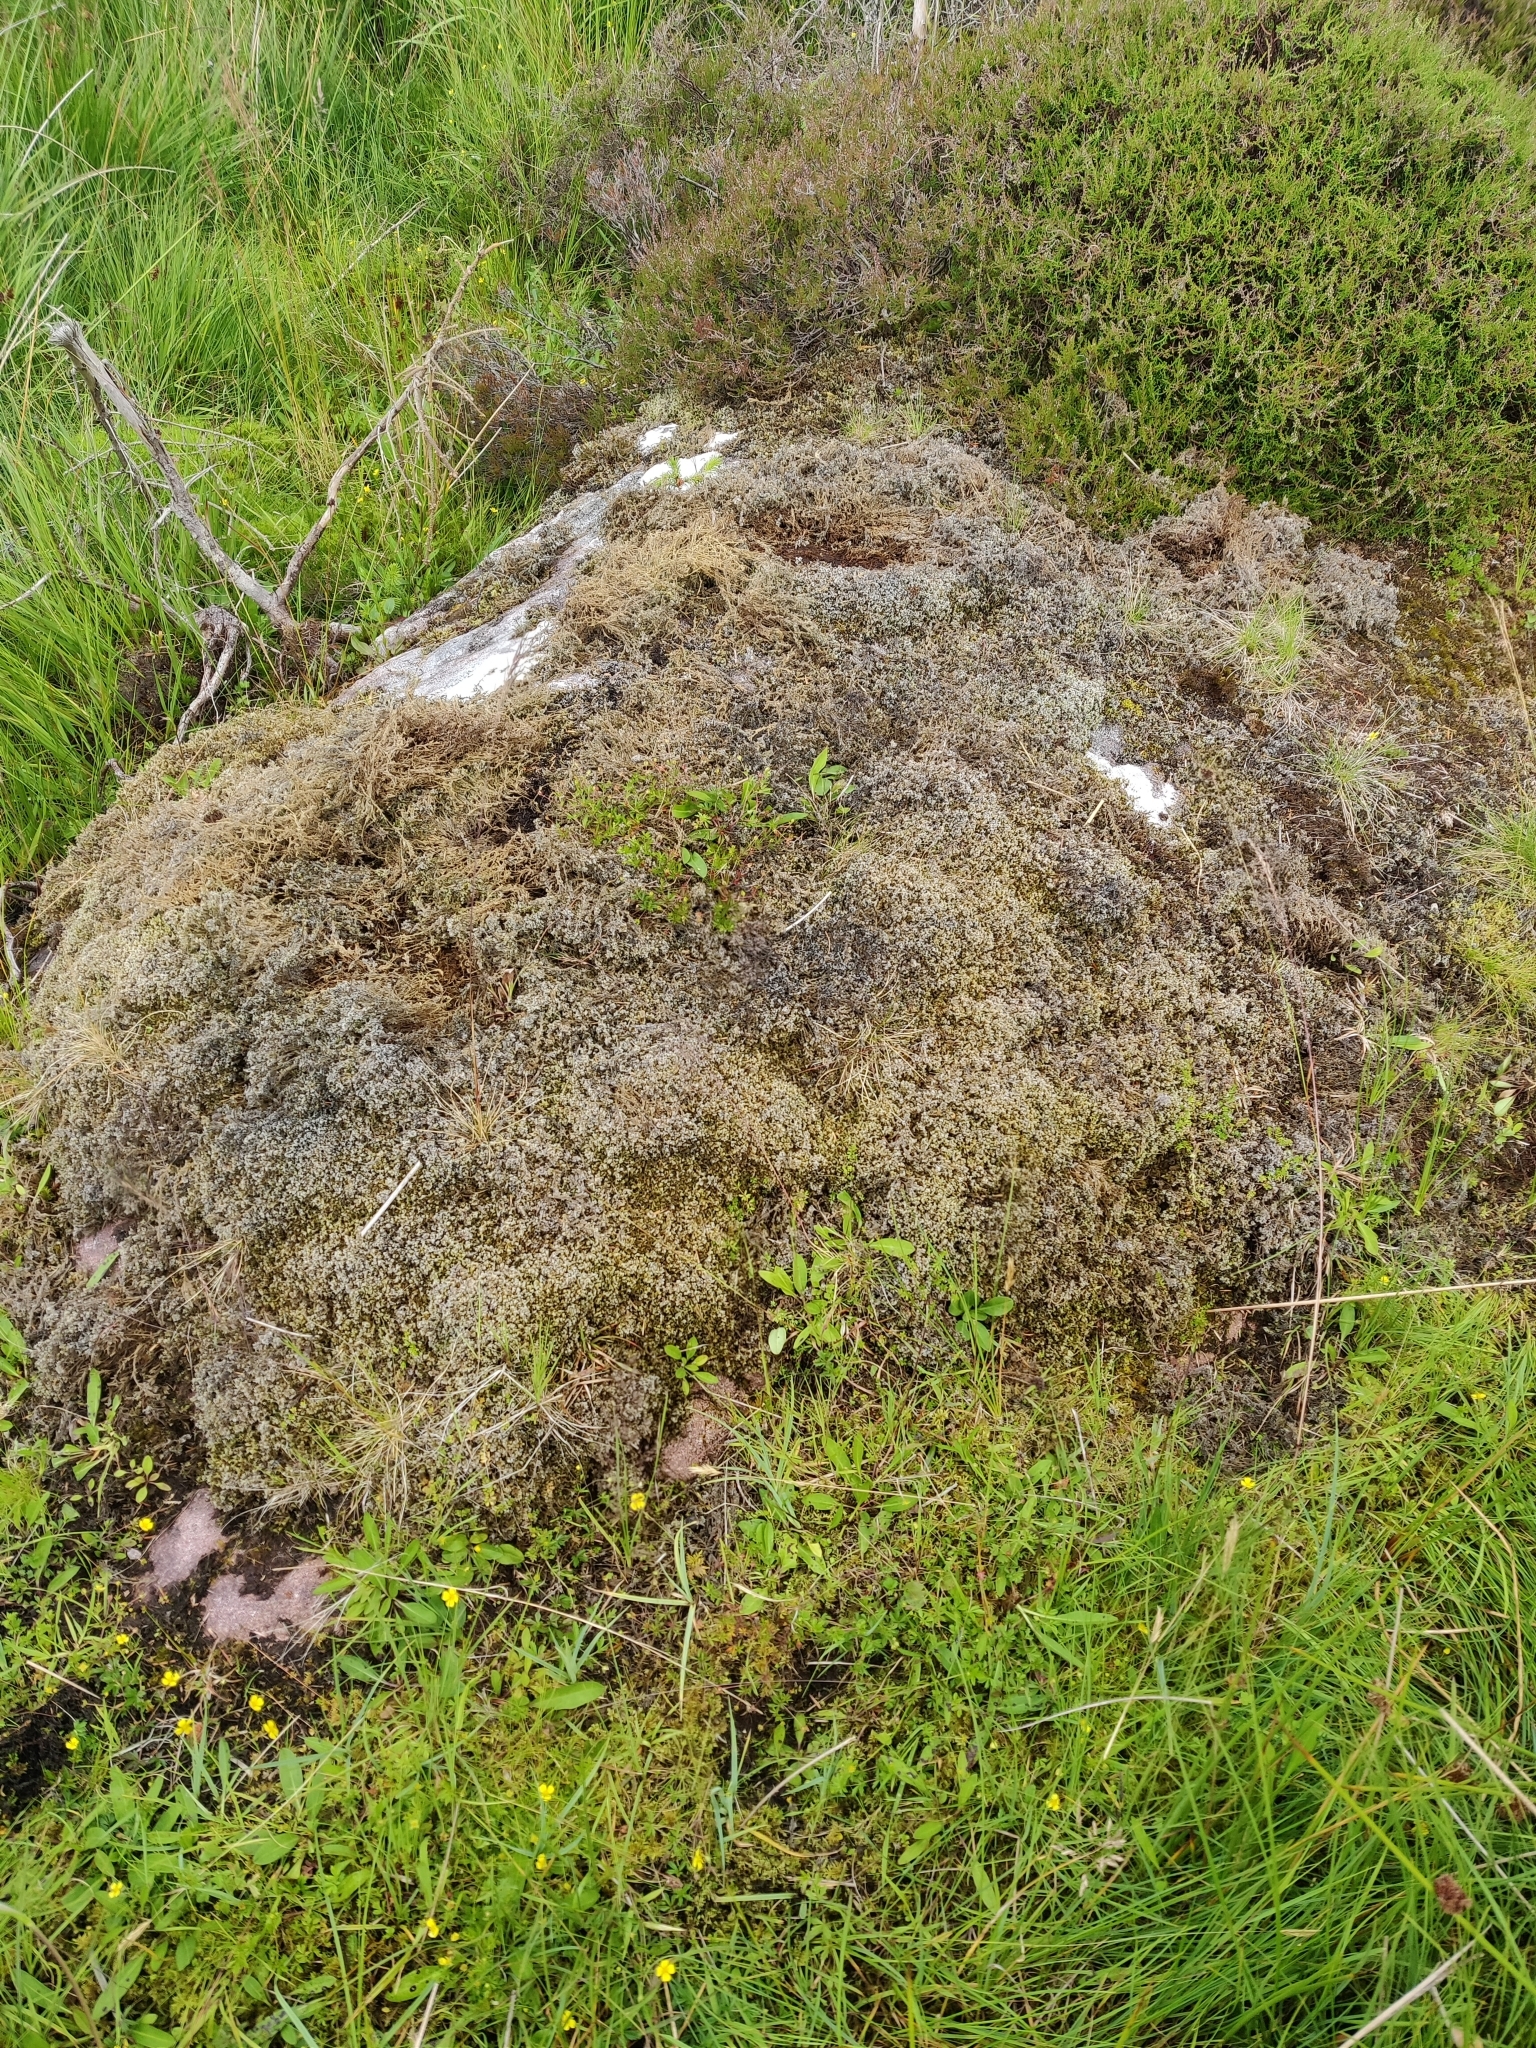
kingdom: Plantae
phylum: Bryophyta
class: Bryopsida
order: Grimmiales
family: Grimmiaceae
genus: Racomitrium
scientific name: Racomitrium lanuginosum
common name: Hoary rock moss
